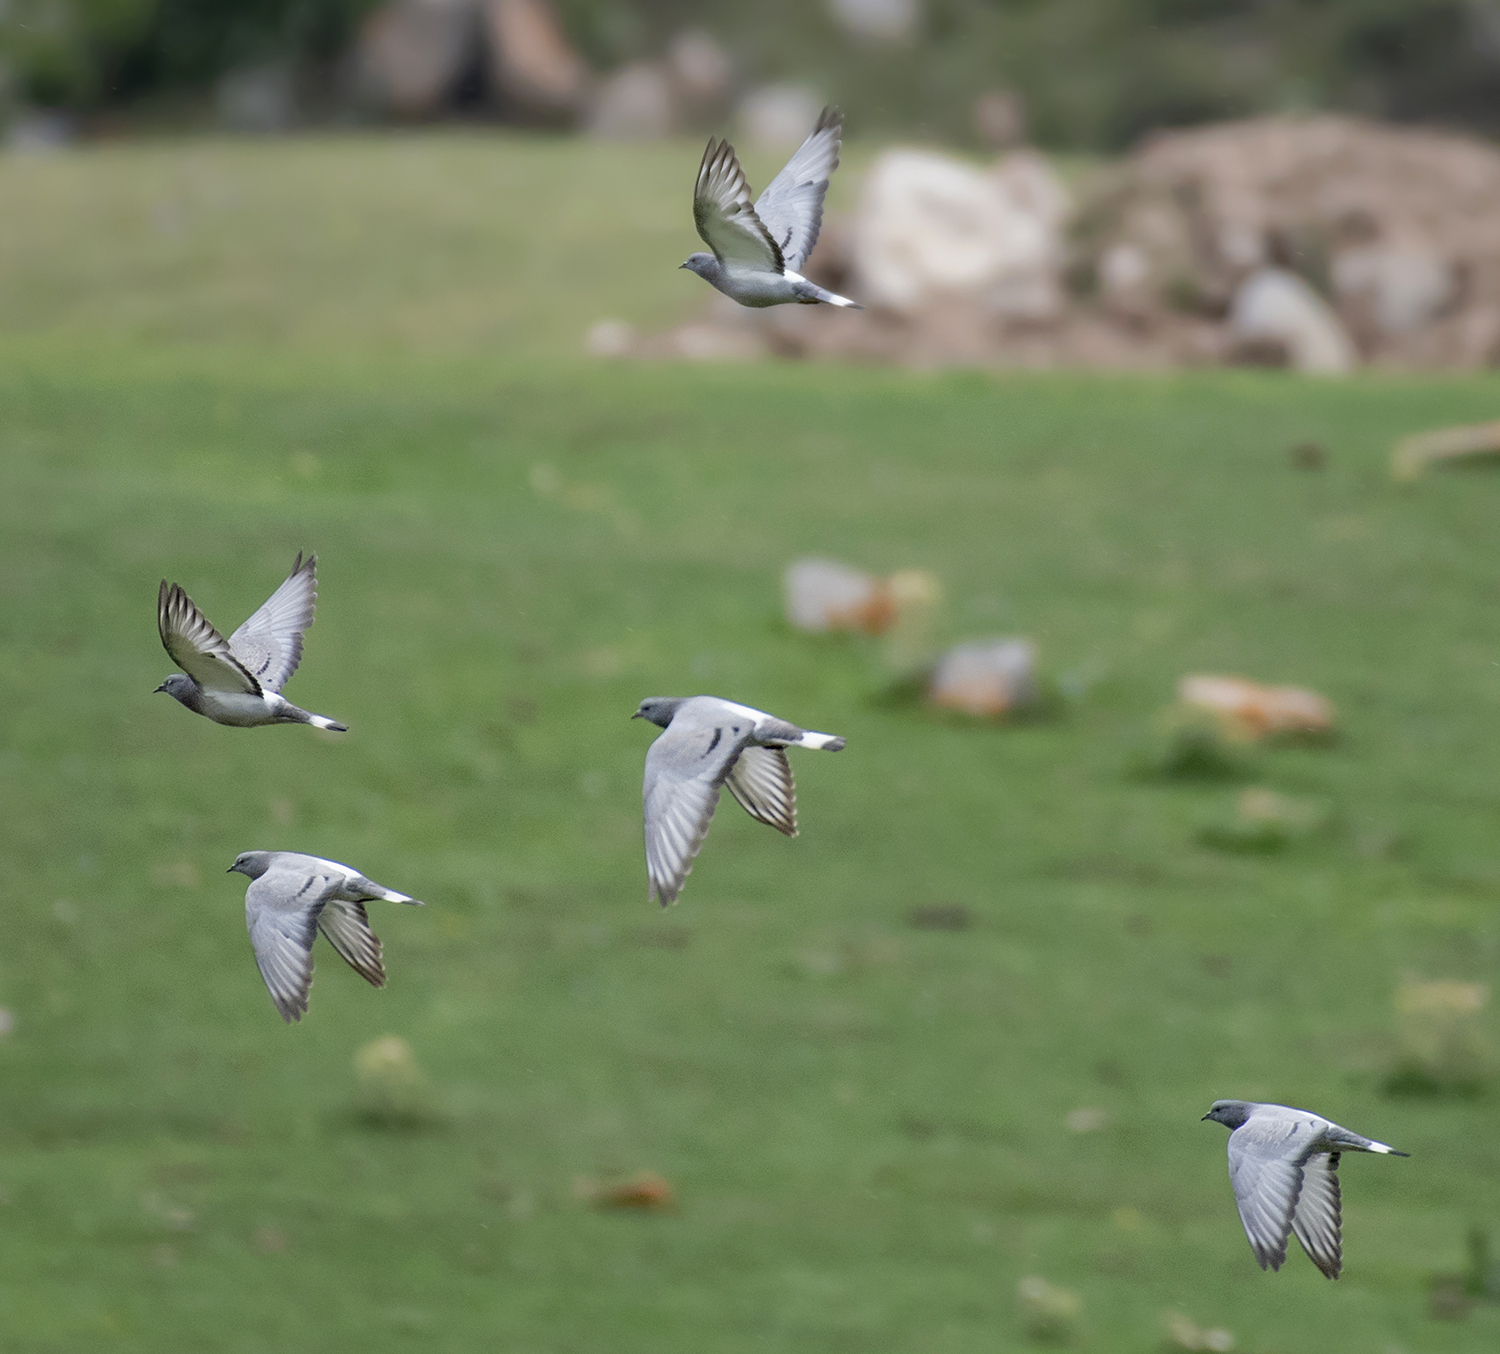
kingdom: Animalia
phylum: Chordata
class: Aves
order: Columbiformes
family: Columbidae
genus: Columba
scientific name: Columba rupestris
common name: Hill pigeon
